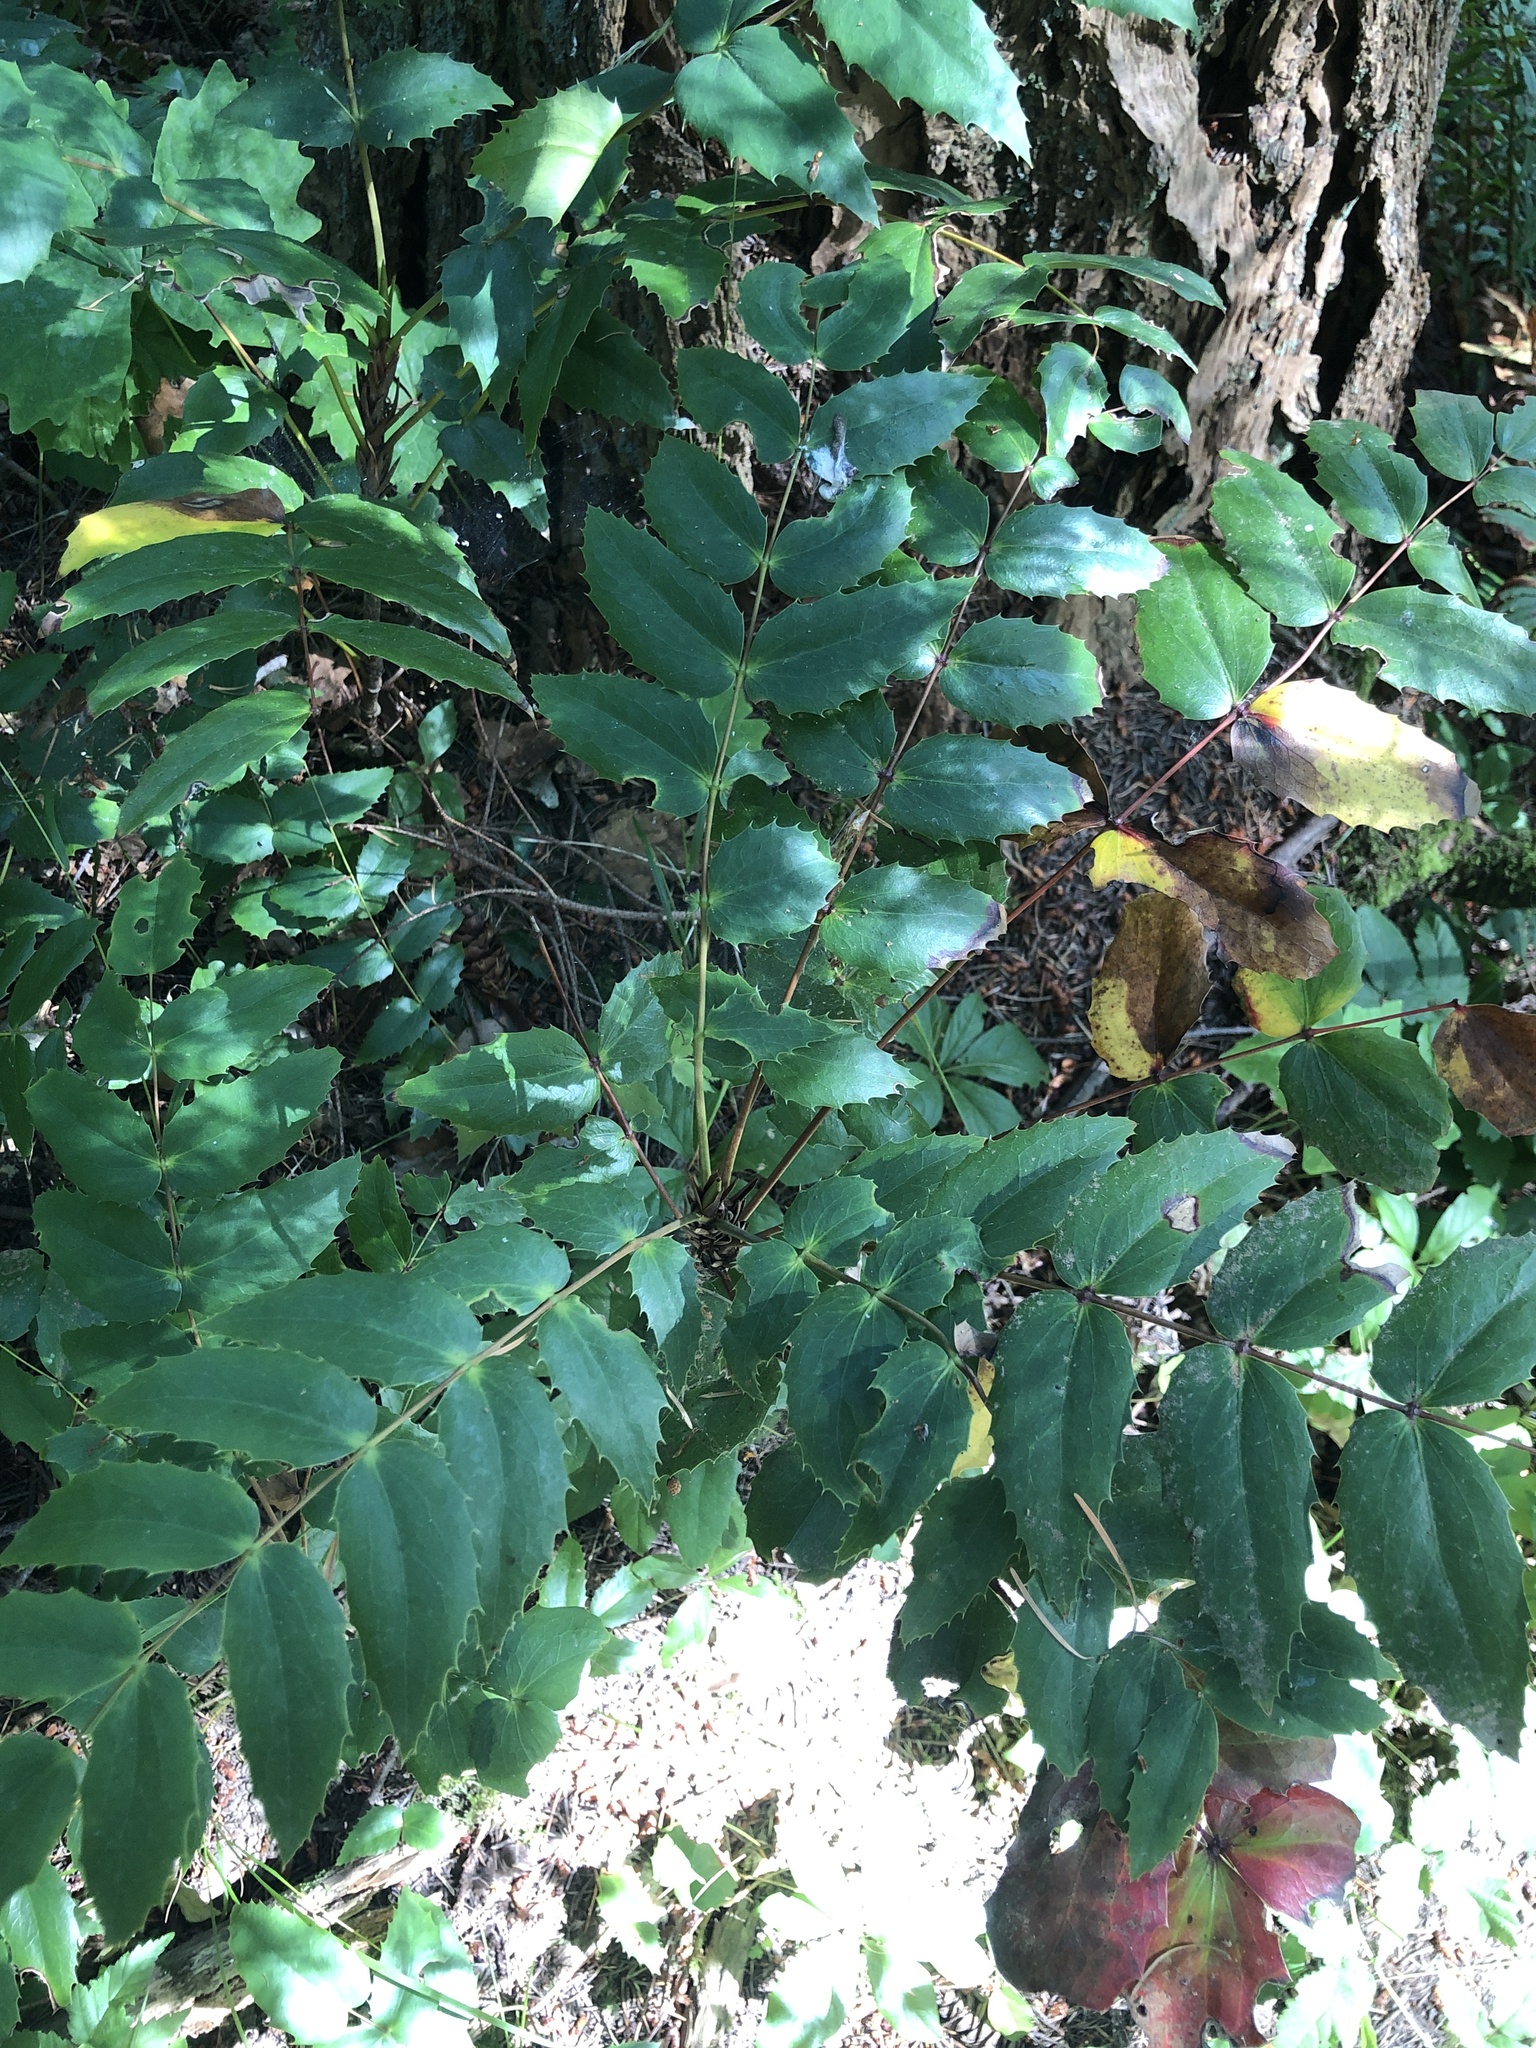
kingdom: Plantae
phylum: Tracheophyta
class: Magnoliopsida
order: Ranunculales
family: Berberidaceae
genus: Mahonia
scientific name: Mahonia nervosa
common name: Cascade oregon-grape
